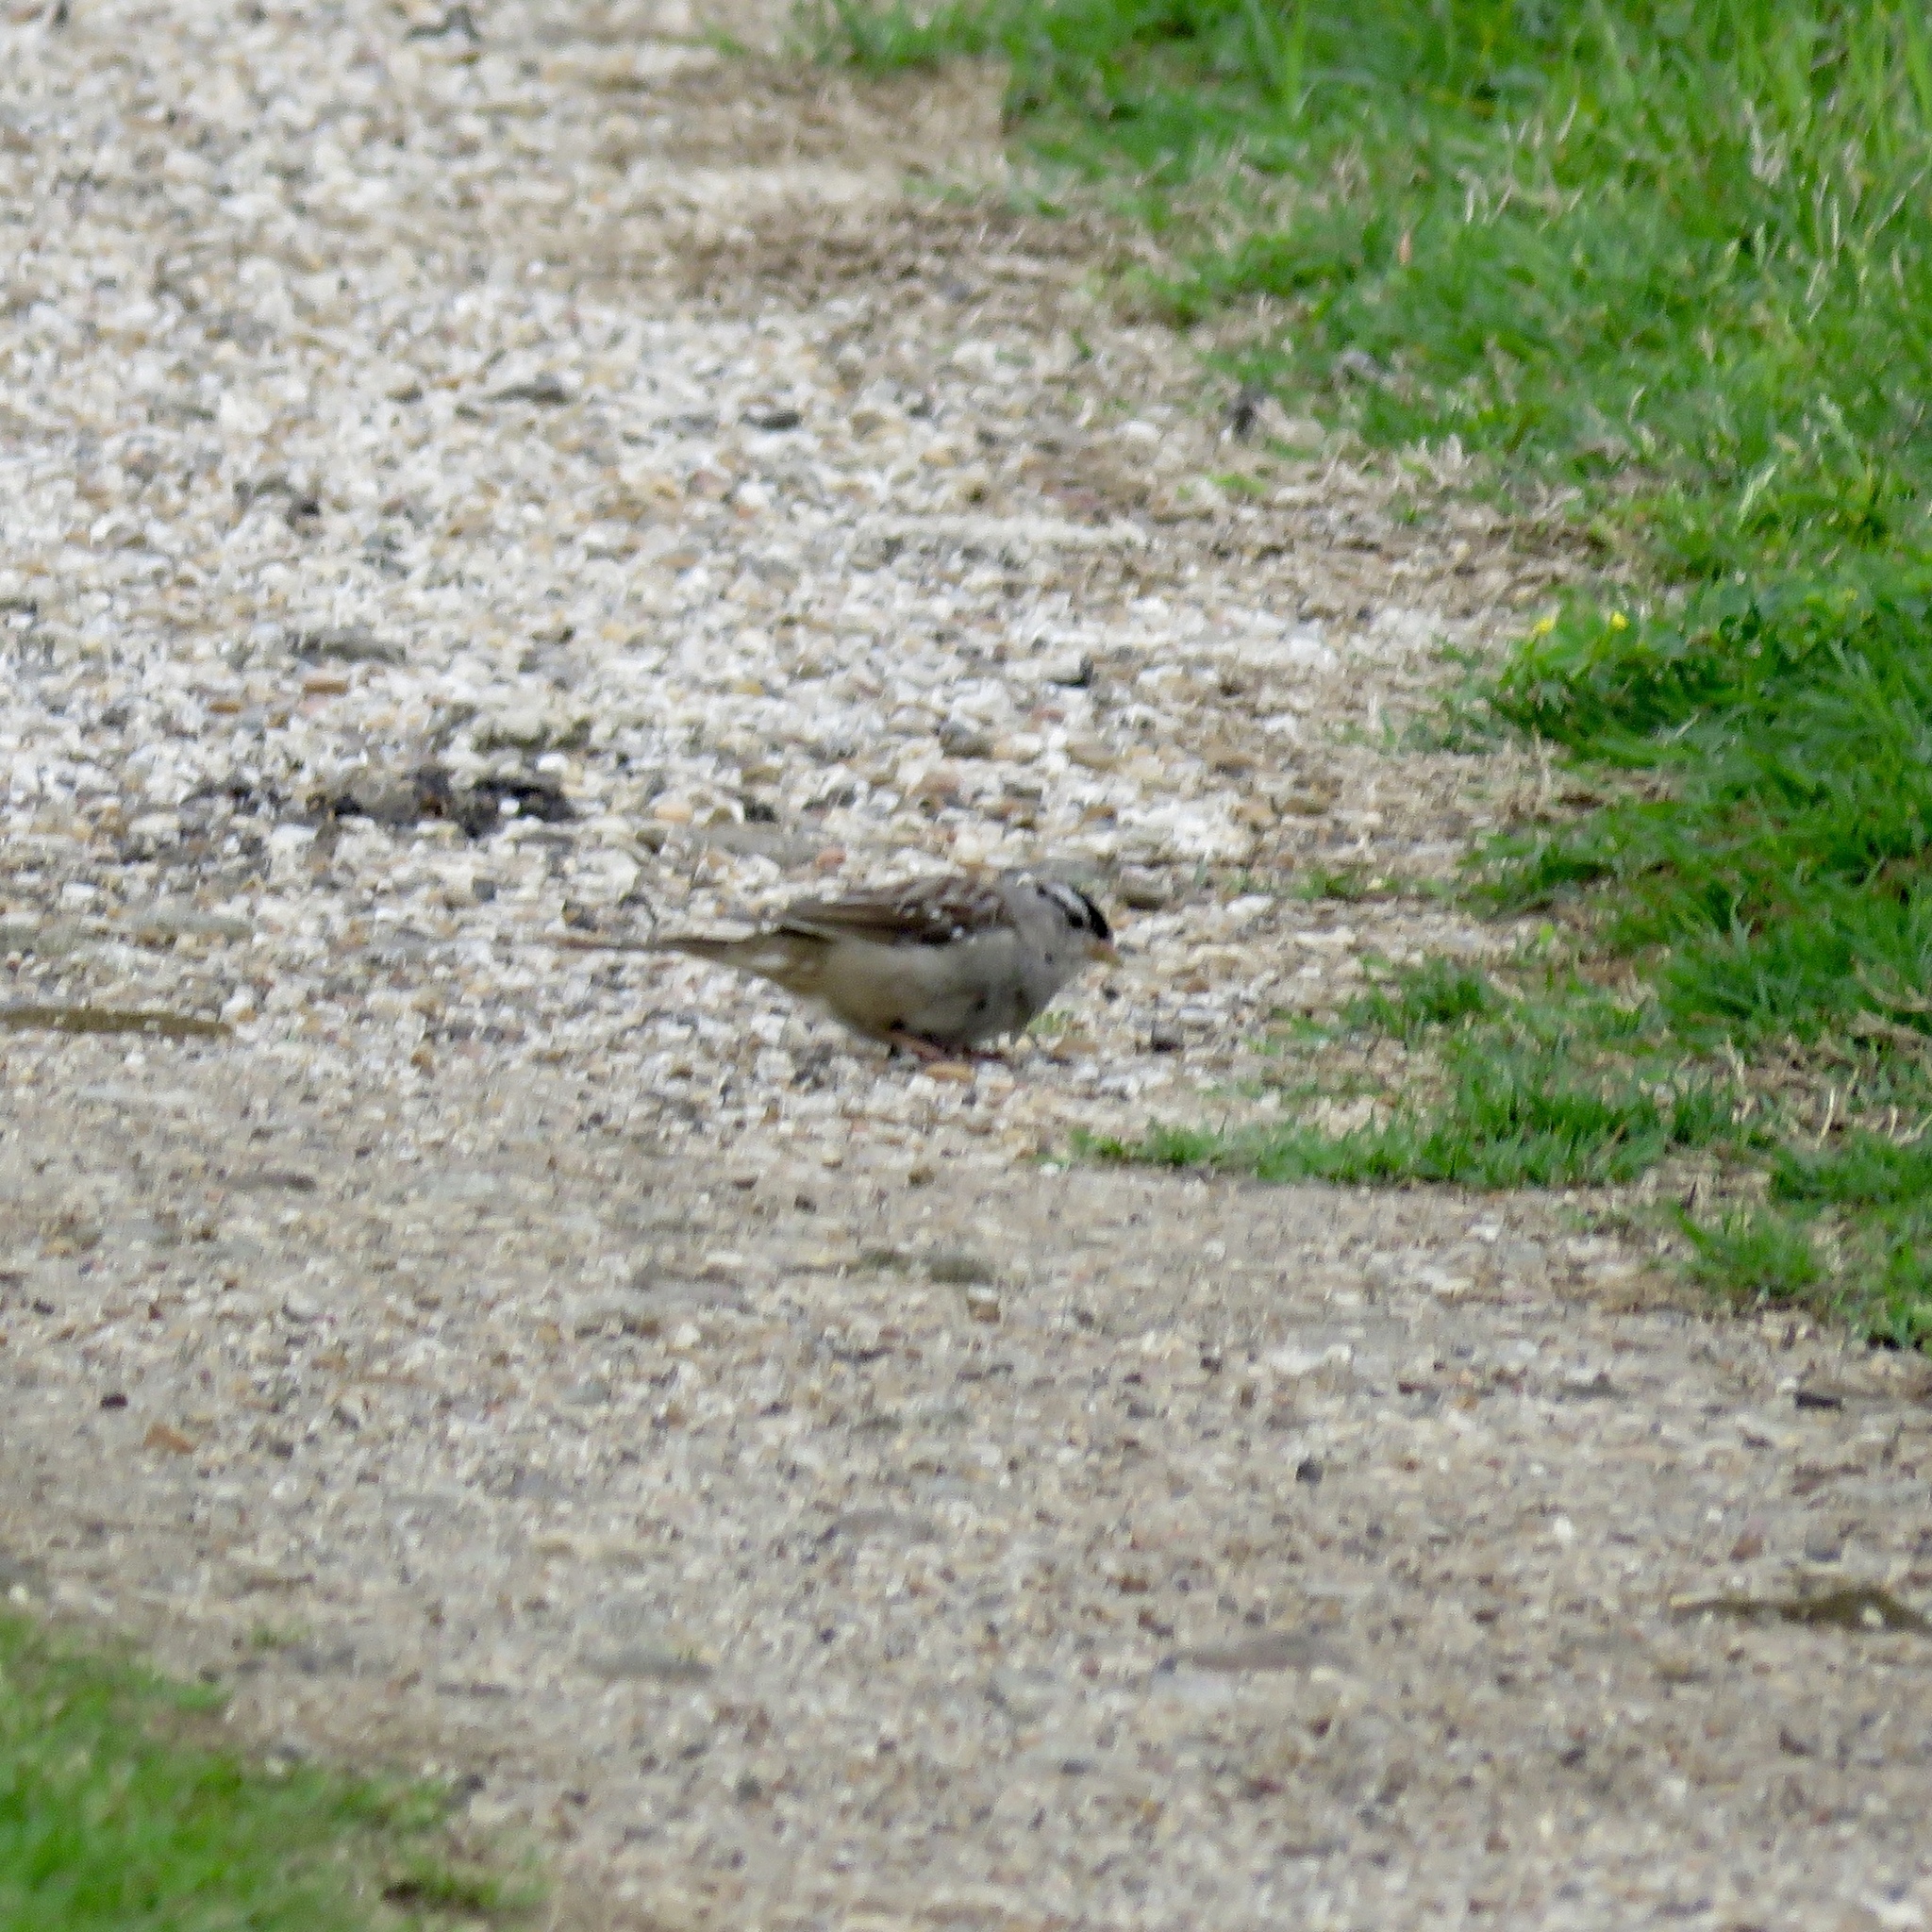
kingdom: Animalia
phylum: Chordata
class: Aves
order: Passeriformes
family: Passerellidae
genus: Zonotrichia
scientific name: Zonotrichia leucophrys
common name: White-crowned sparrow
